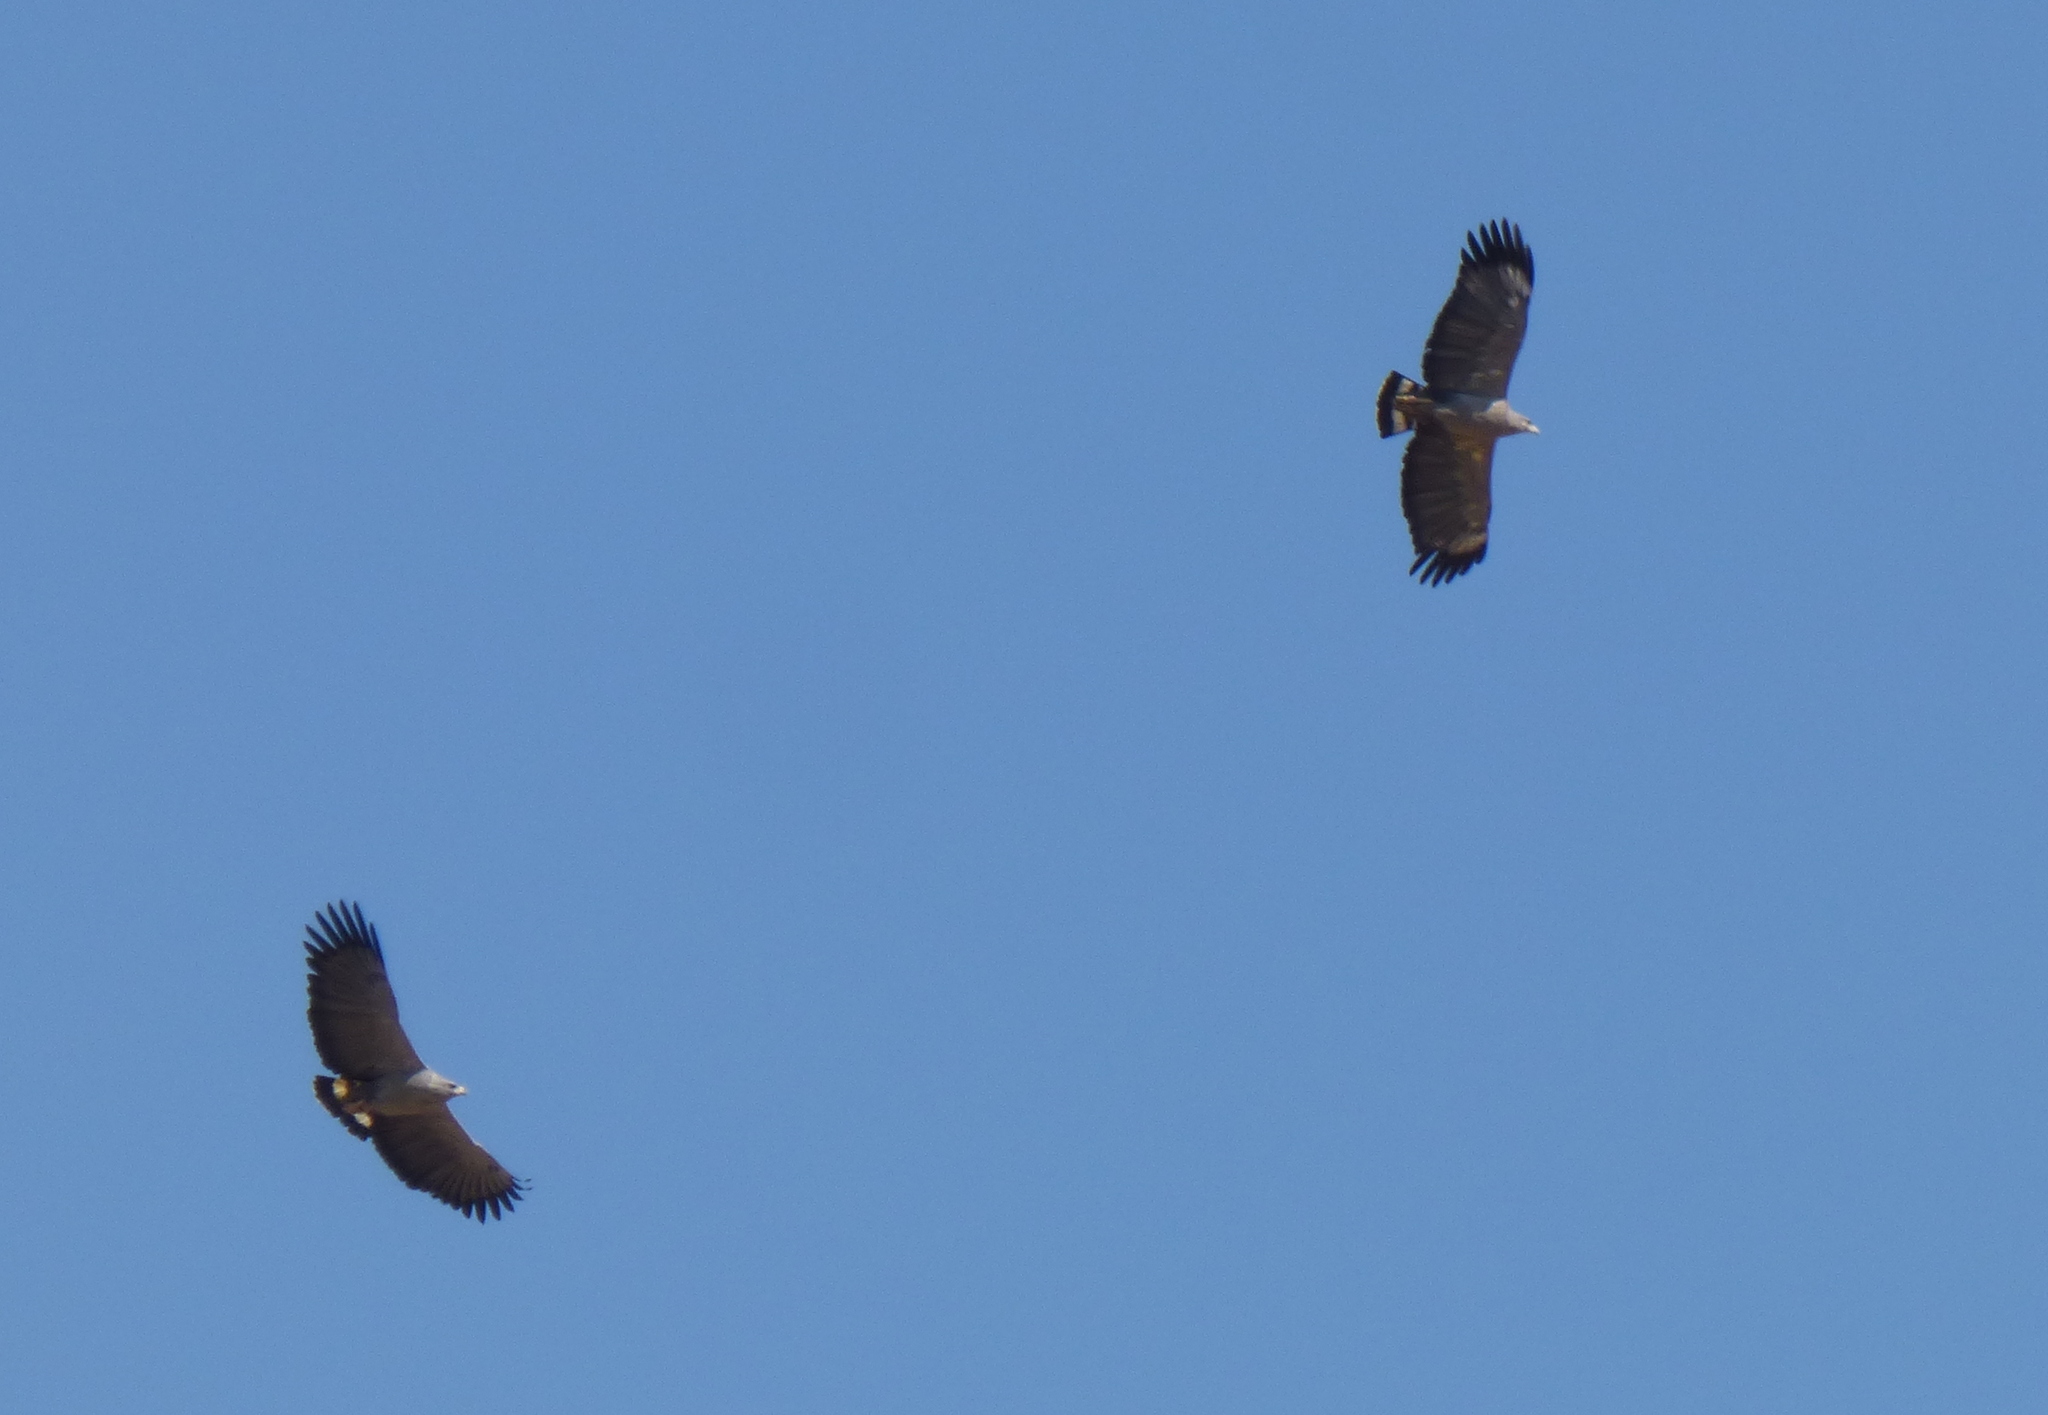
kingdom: Animalia
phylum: Chordata
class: Aves
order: Accipitriformes
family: Accipitridae
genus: Harpyhaliaetus
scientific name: Harpyhaliaetus coronatus
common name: Crowned solitary eagle
